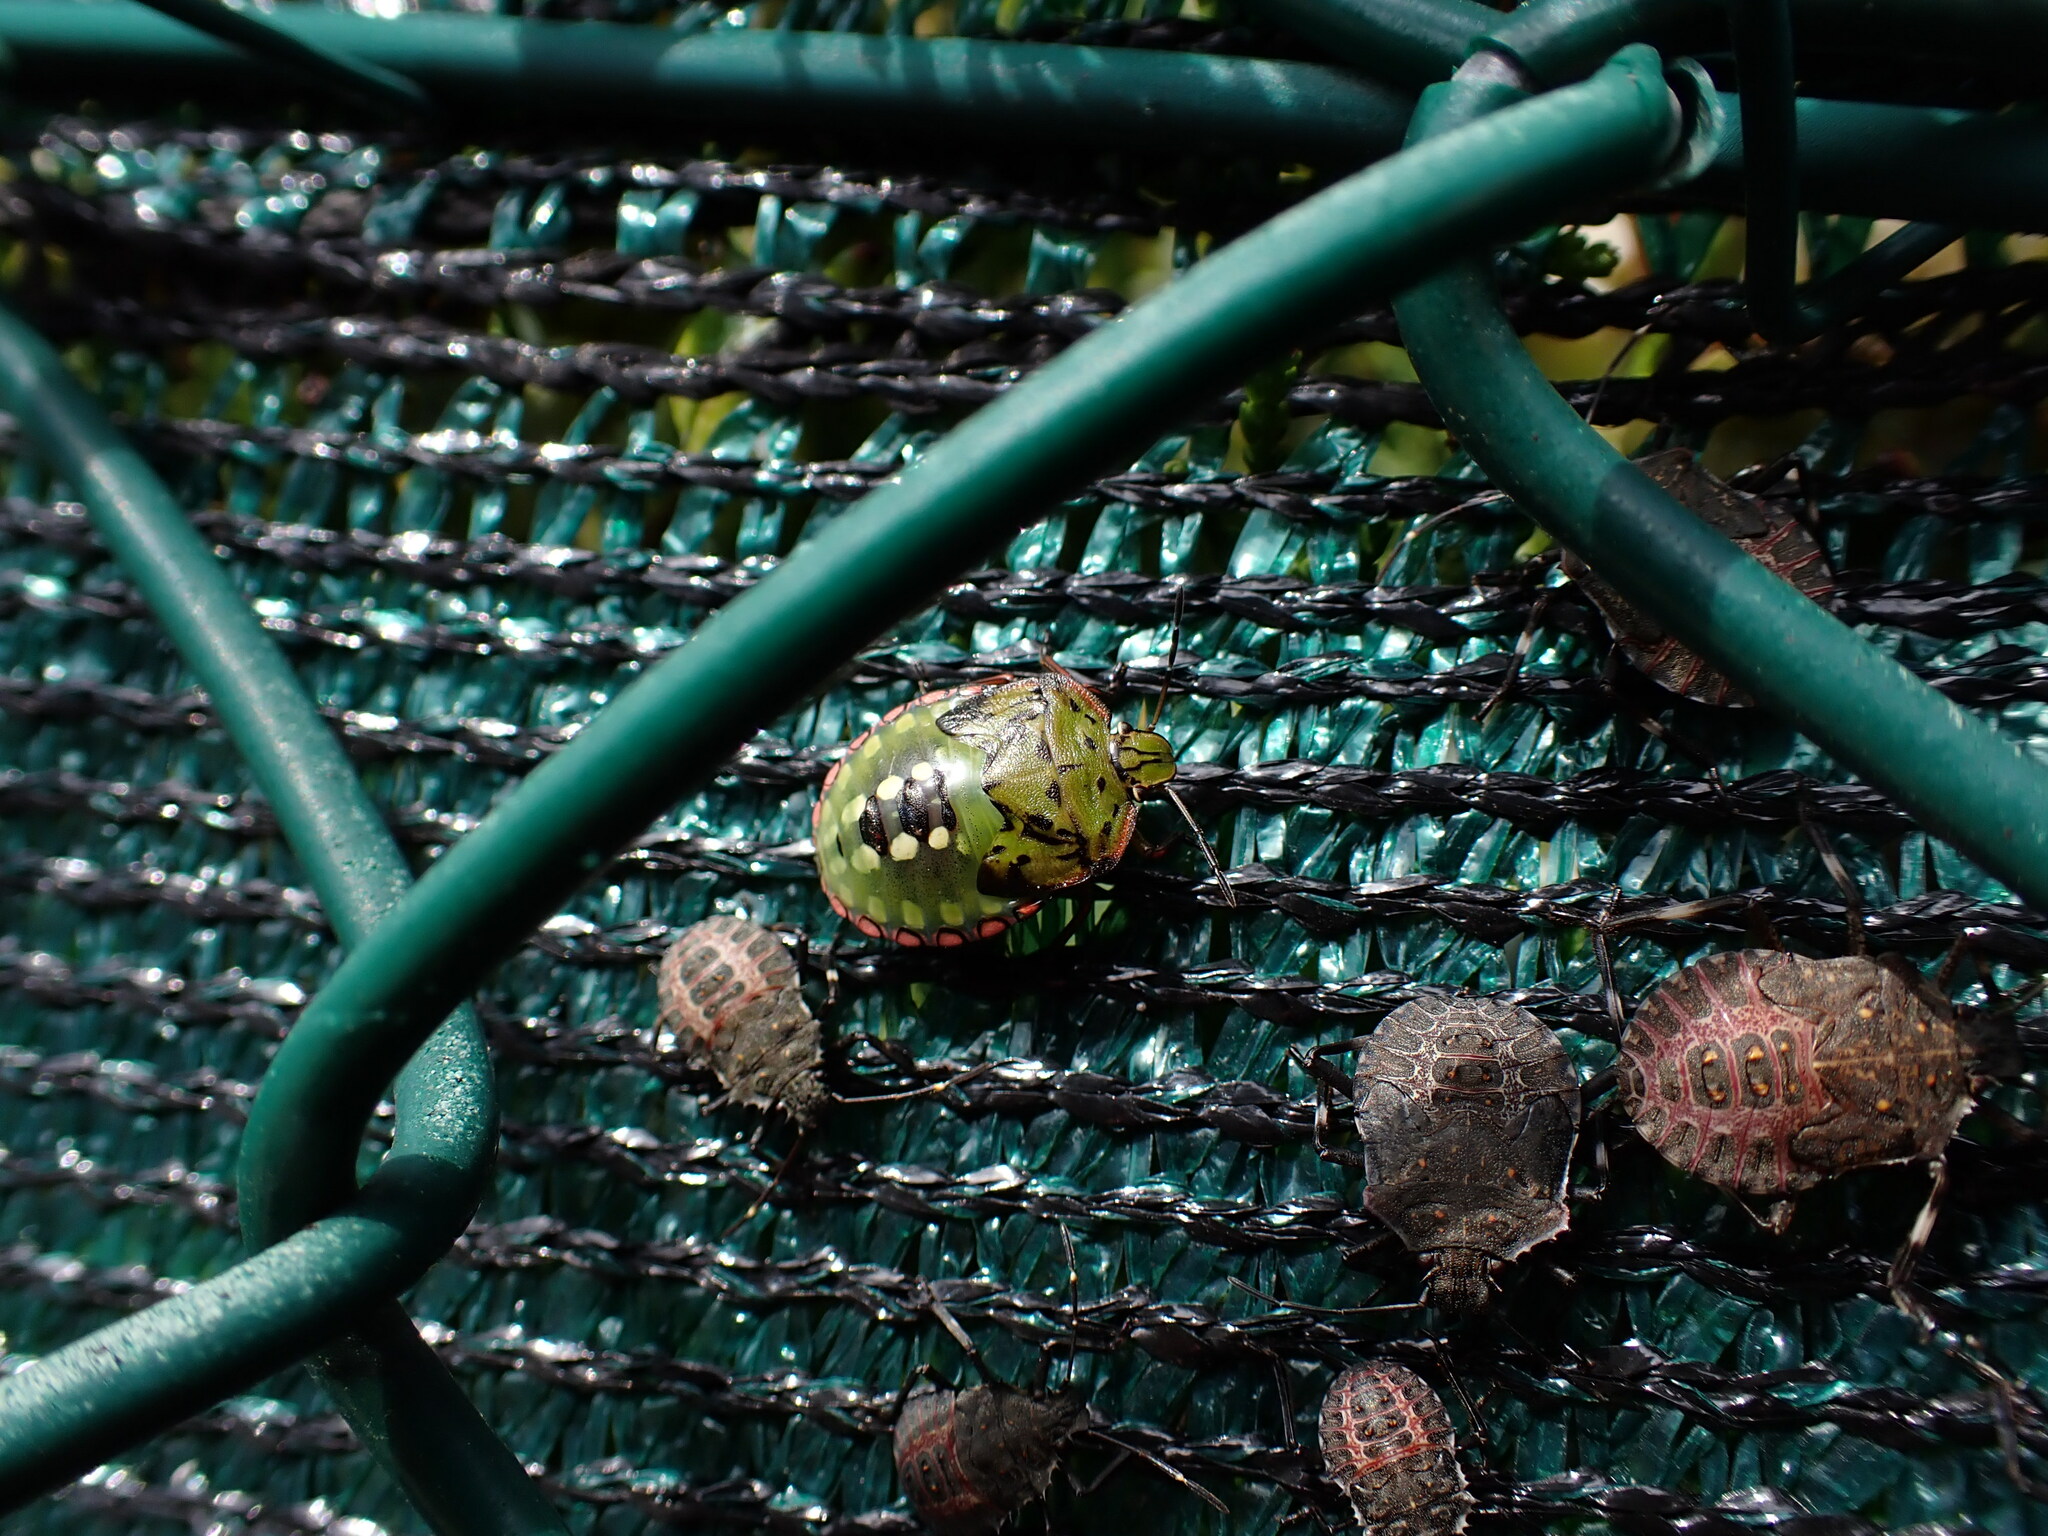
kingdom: Animalia
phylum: Arthropoda
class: Insecta
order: Hemiptera
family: Pentatomidae
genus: Nezara
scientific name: Nezara viridula
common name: Southern green stink bug
